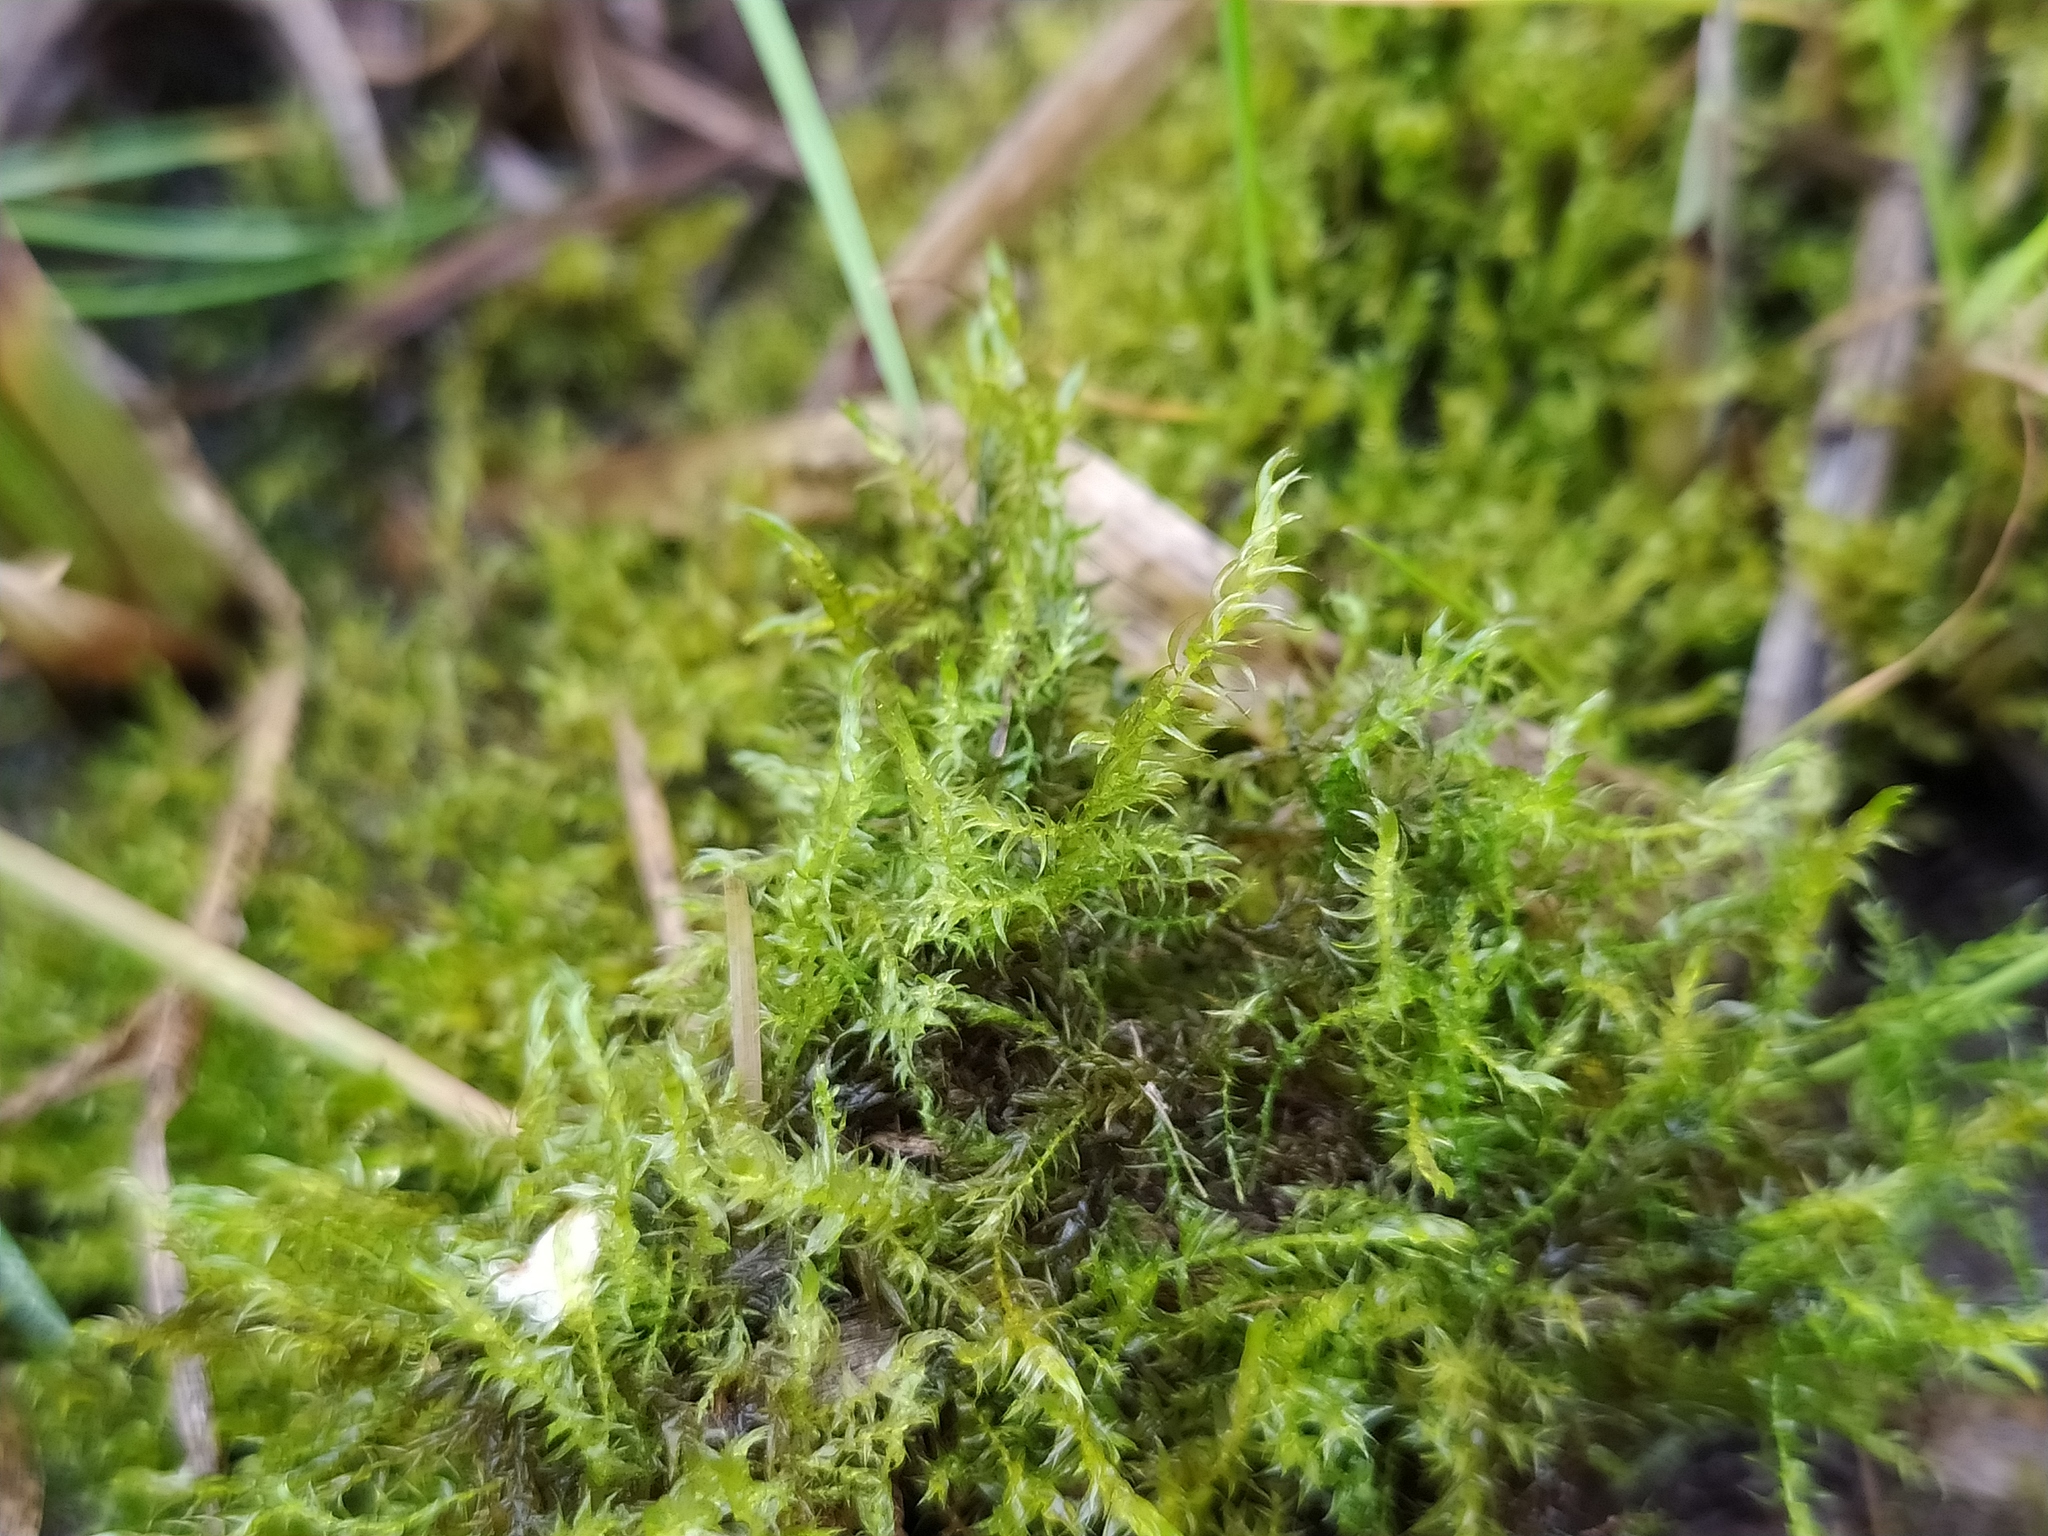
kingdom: Plantae
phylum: Bryophyta
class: Bryopsida
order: Hypnales
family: Amblystegiaceae
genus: Drepanocladus
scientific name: Drepanocladus aduncus
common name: Knieff's hook moss
